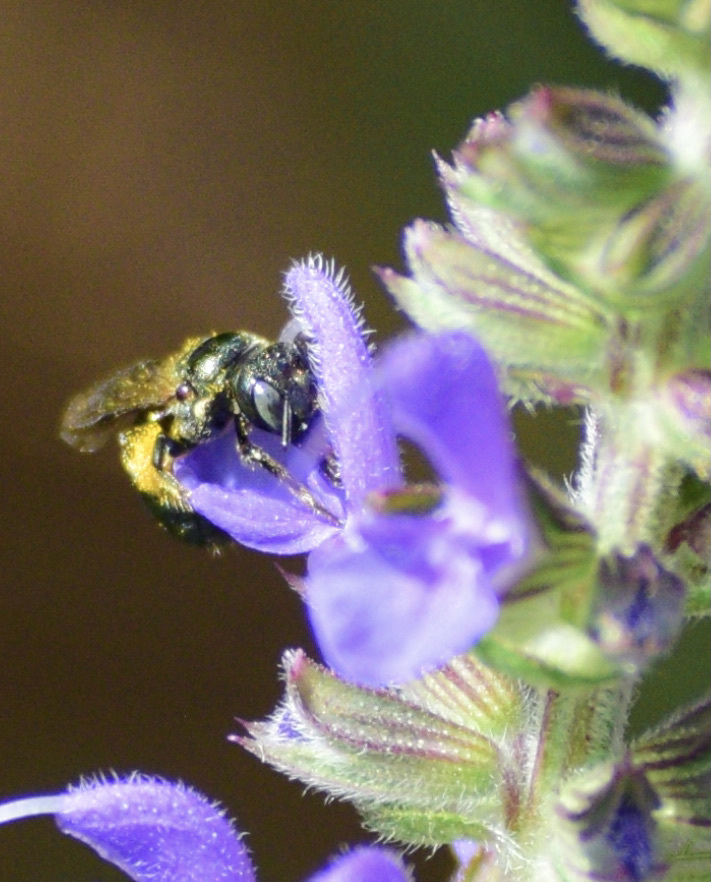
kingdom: Animalia
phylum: Arthropoda
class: Insecta
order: Hymenoptera
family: Apidae
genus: Ceratina
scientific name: Ceratina calcarata
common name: Spurred carpenter bee
